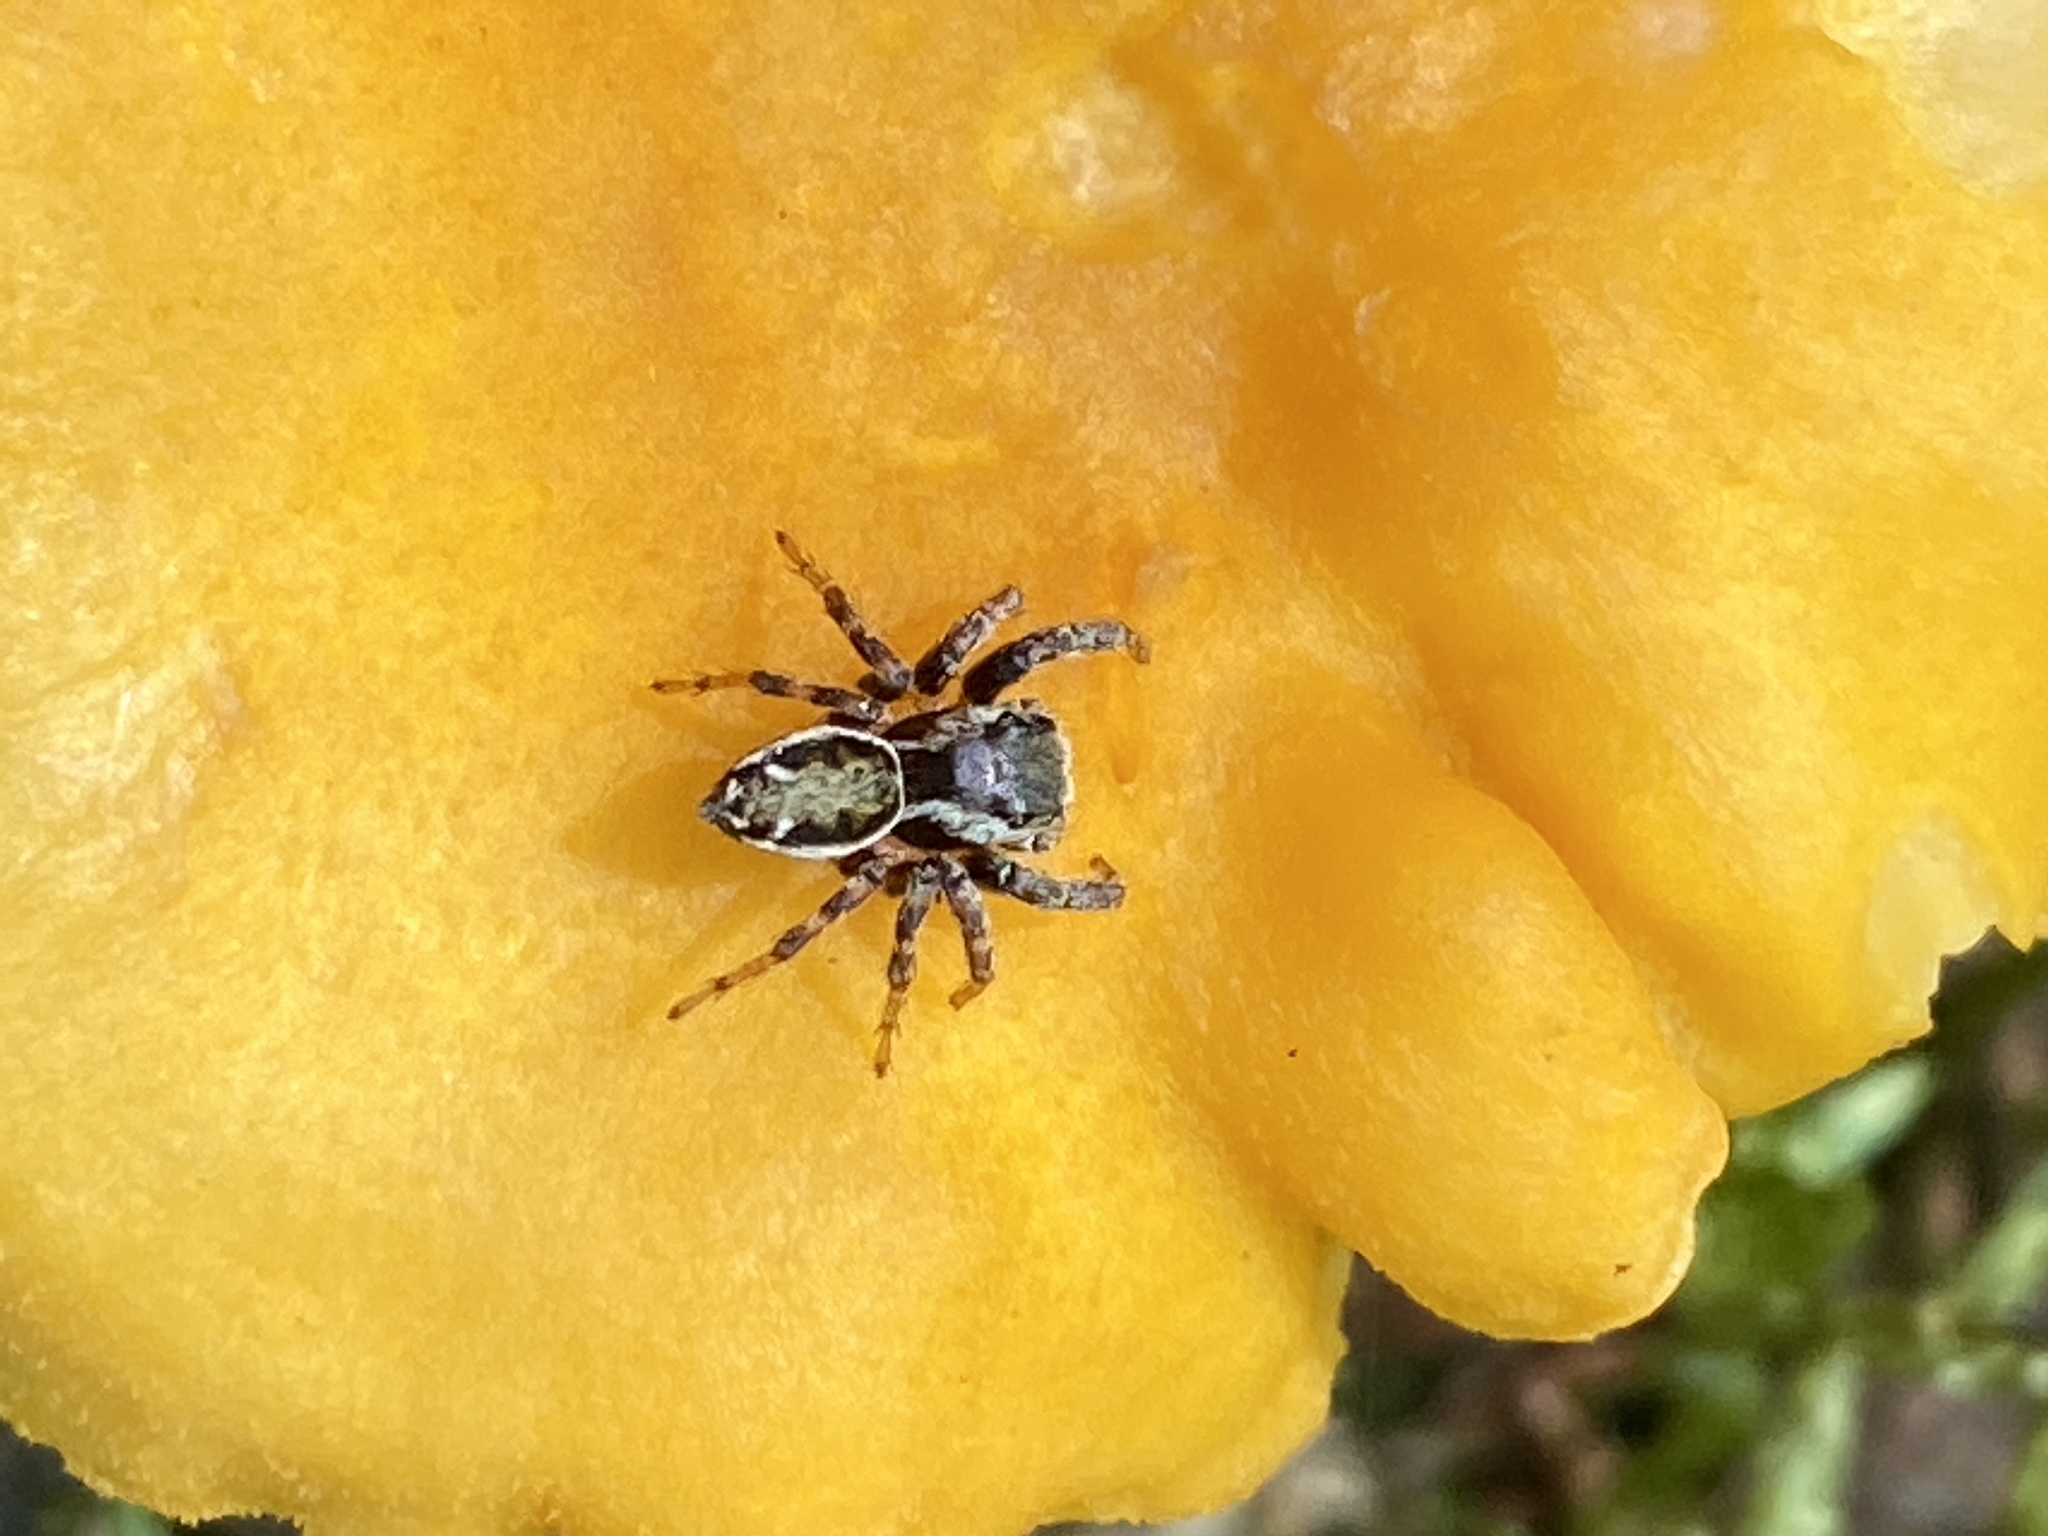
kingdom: Animalia
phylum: Arthropoda
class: Arachnida
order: Araneae
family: Salticidae
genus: Evarcha
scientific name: Evarcha falcata
